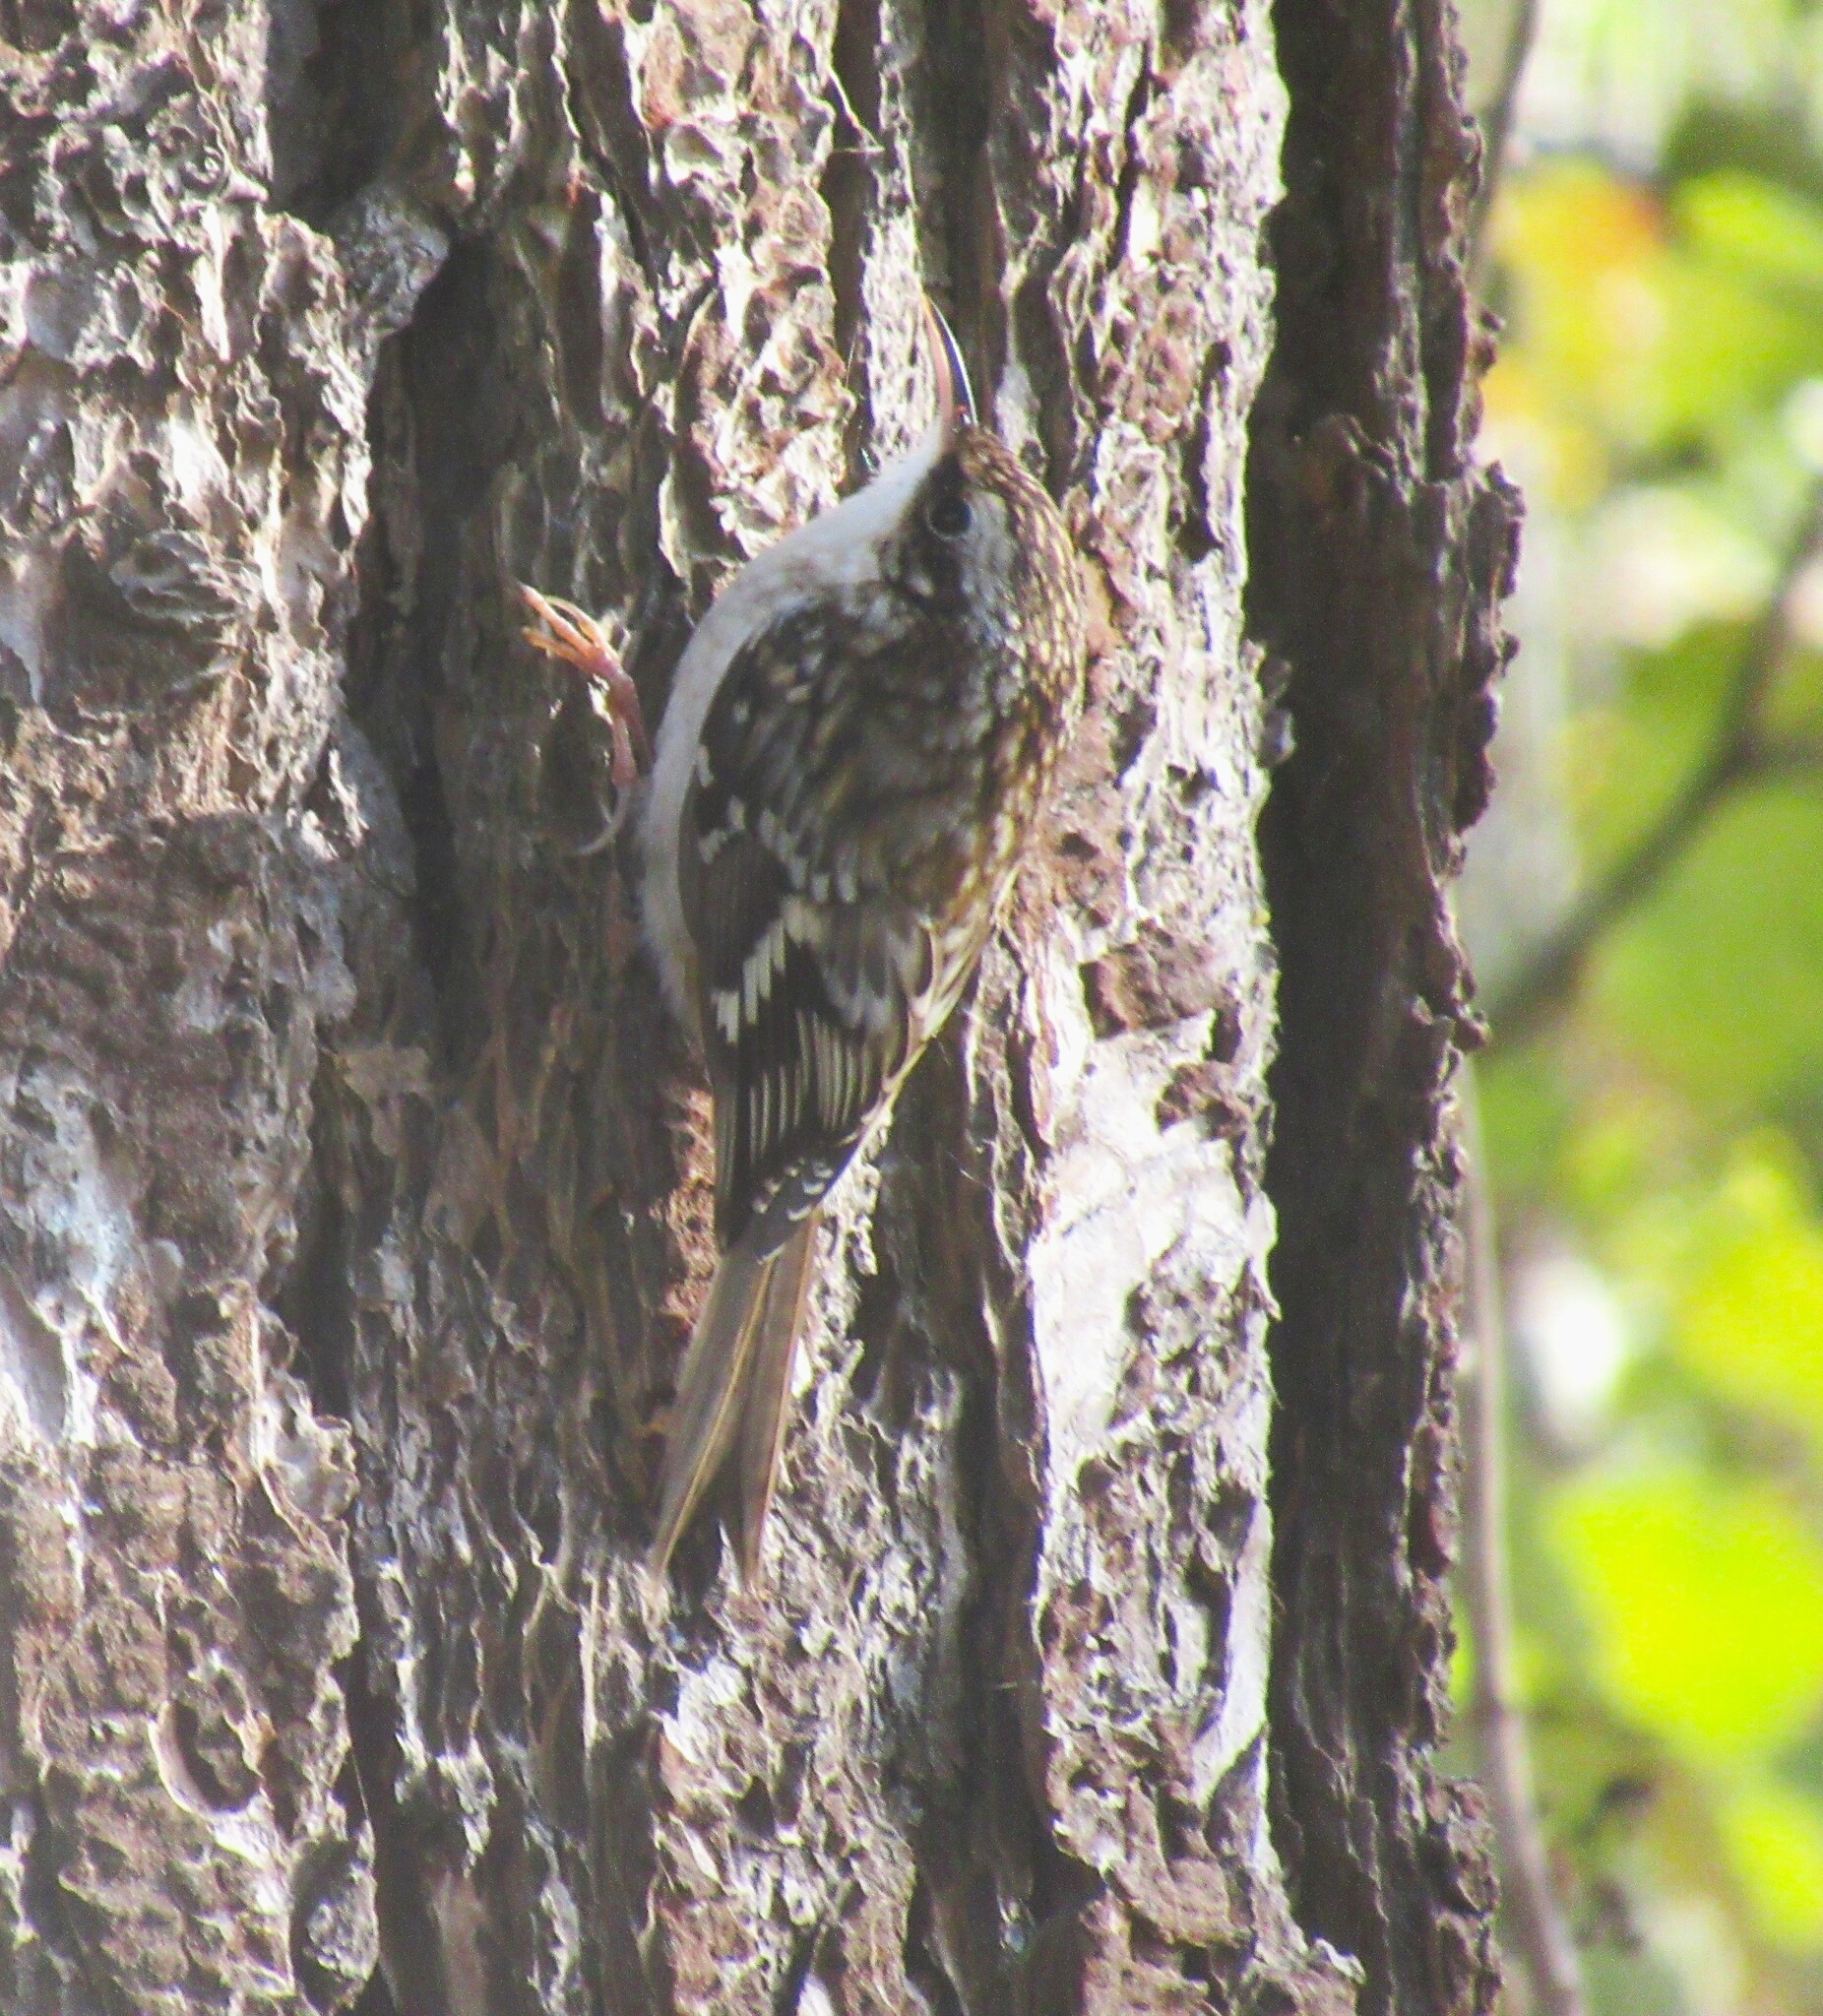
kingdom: Animalia
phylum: Chordata
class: Aves
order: Passeriformes
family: Certhiidae
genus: Certhia
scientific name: Certhia americana
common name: Brown creeper
